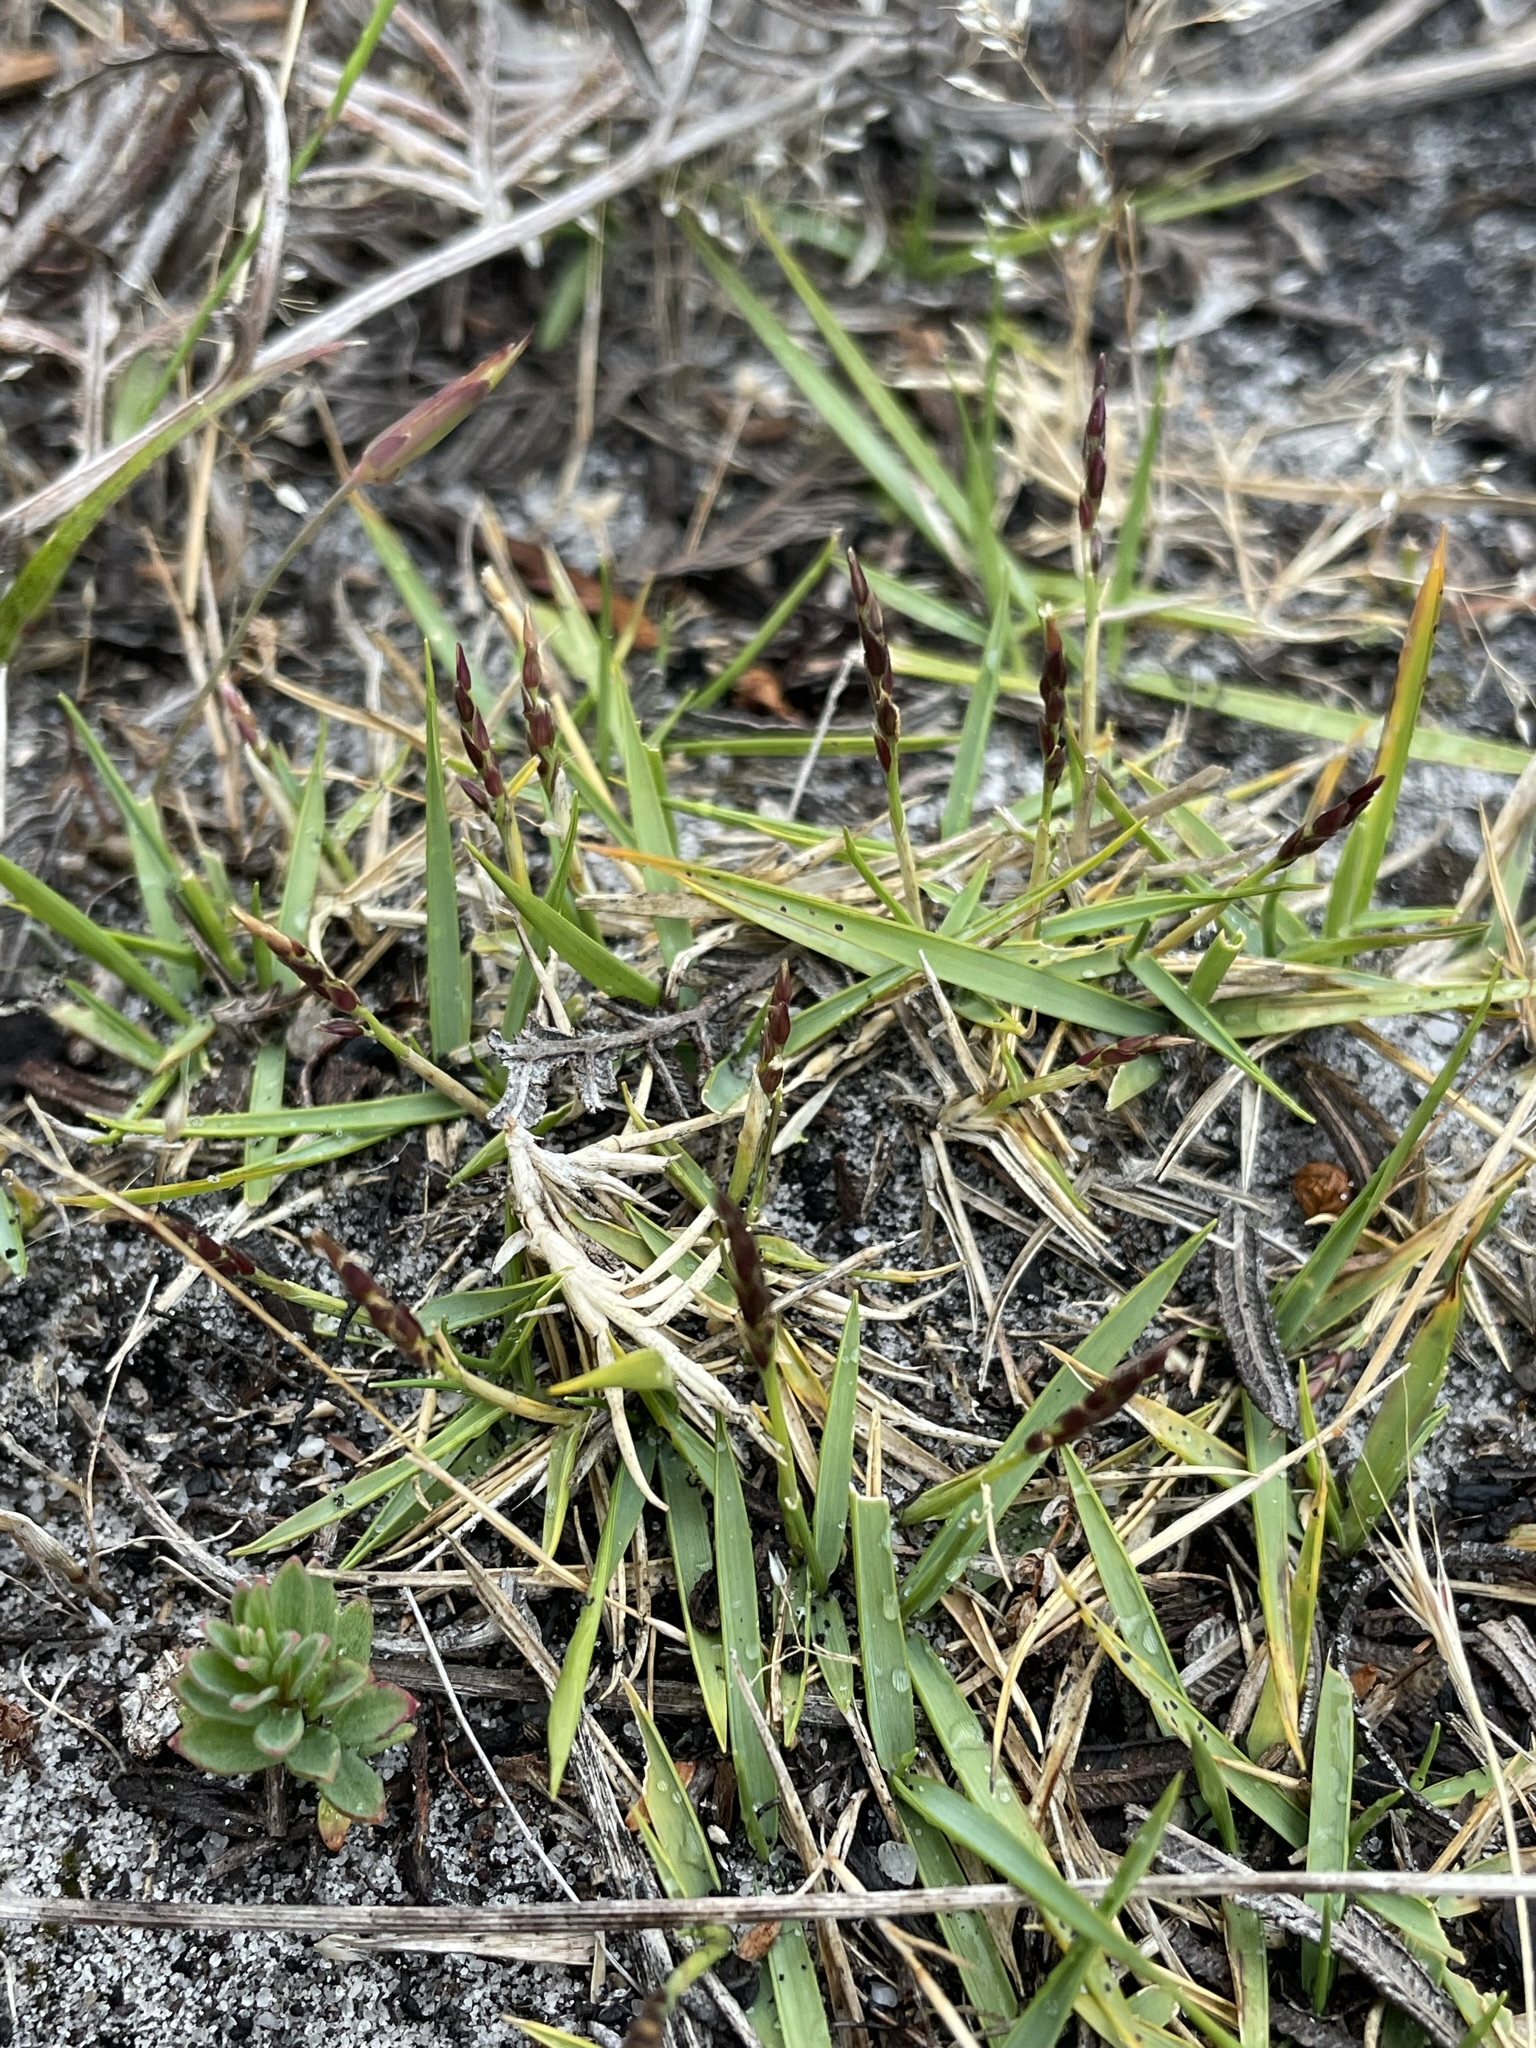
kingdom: Plantae
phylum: Tracheophyta
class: Liliopsida
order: Poales
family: Poaceae
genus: Zoysia
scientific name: Zoysia macrantha
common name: Korean lawn grass
